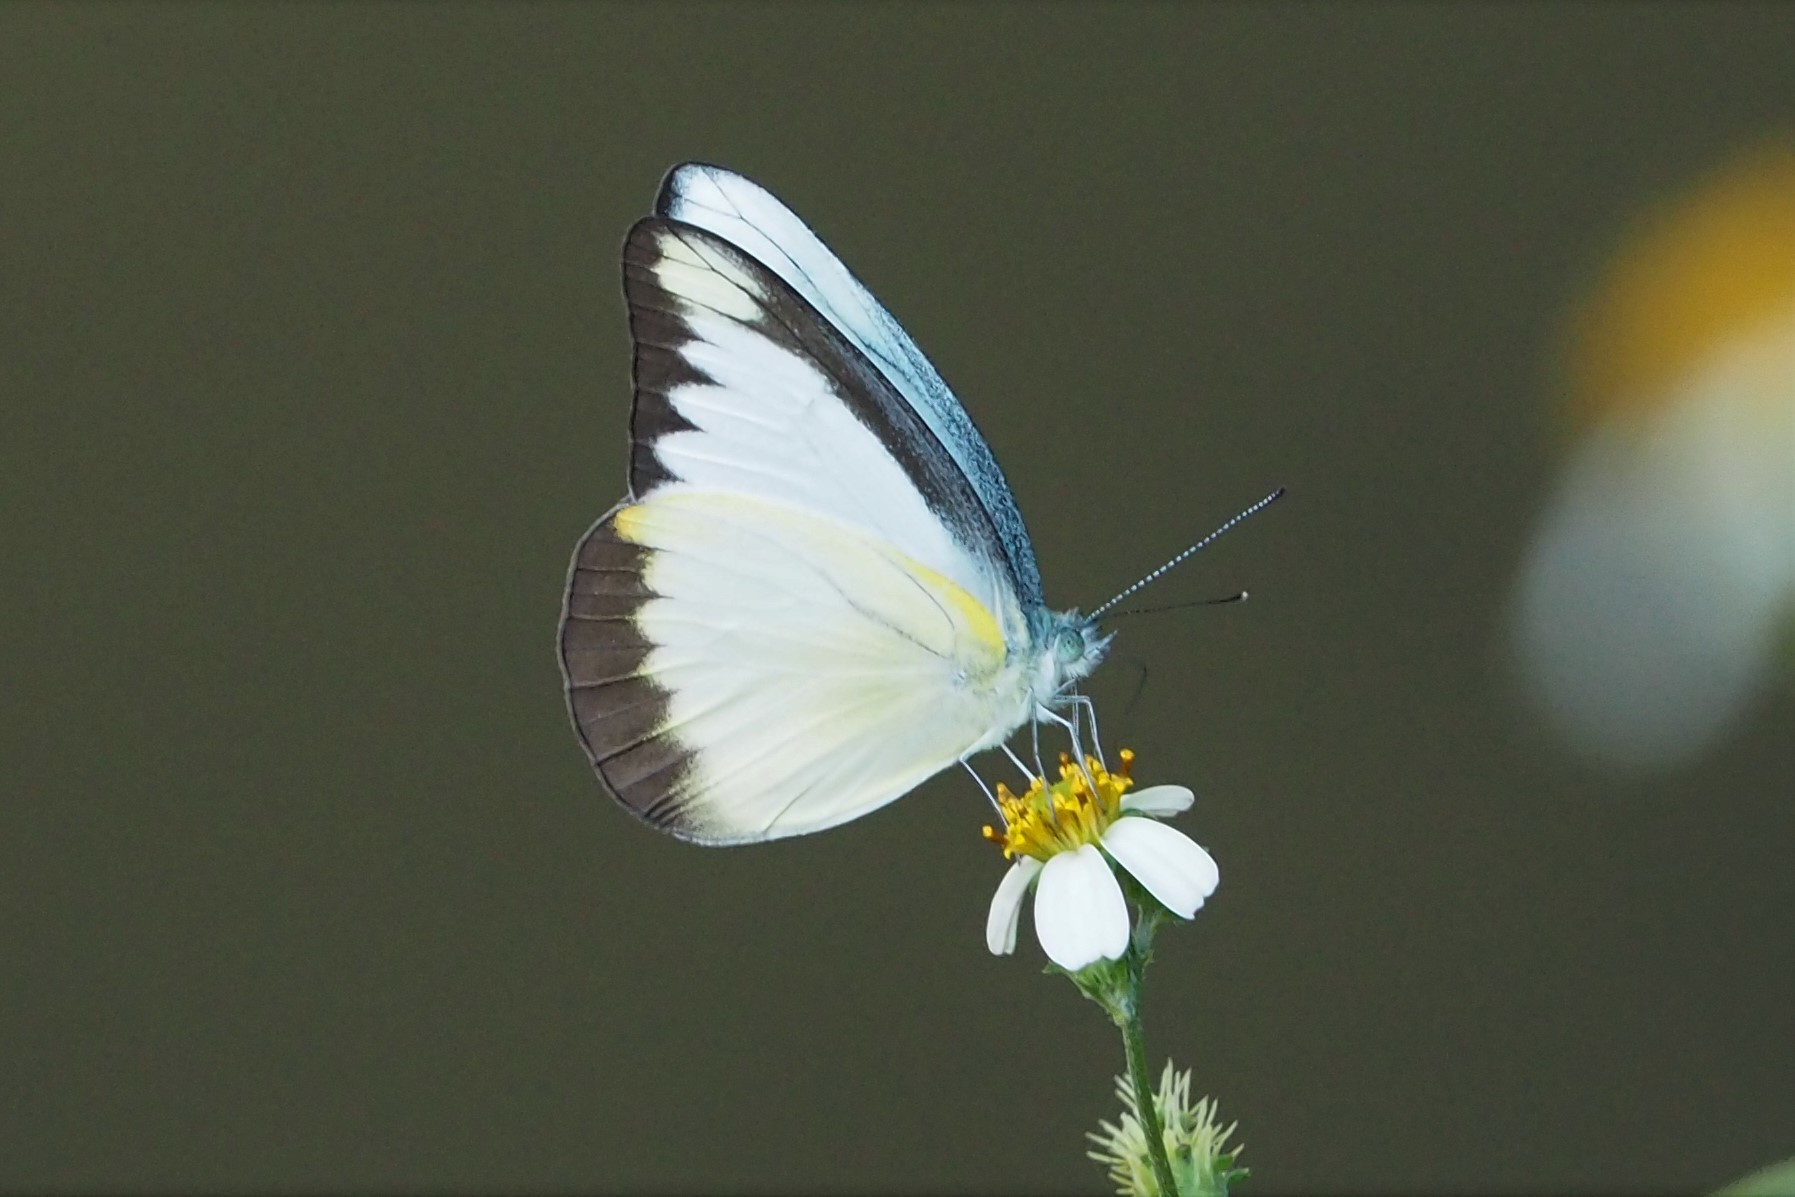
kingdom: Animalia
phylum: Arthropoda
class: Insecta
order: Lepidoptera
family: Pieridae
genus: Appias
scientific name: Appias lyncida
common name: Chocolate albatross
